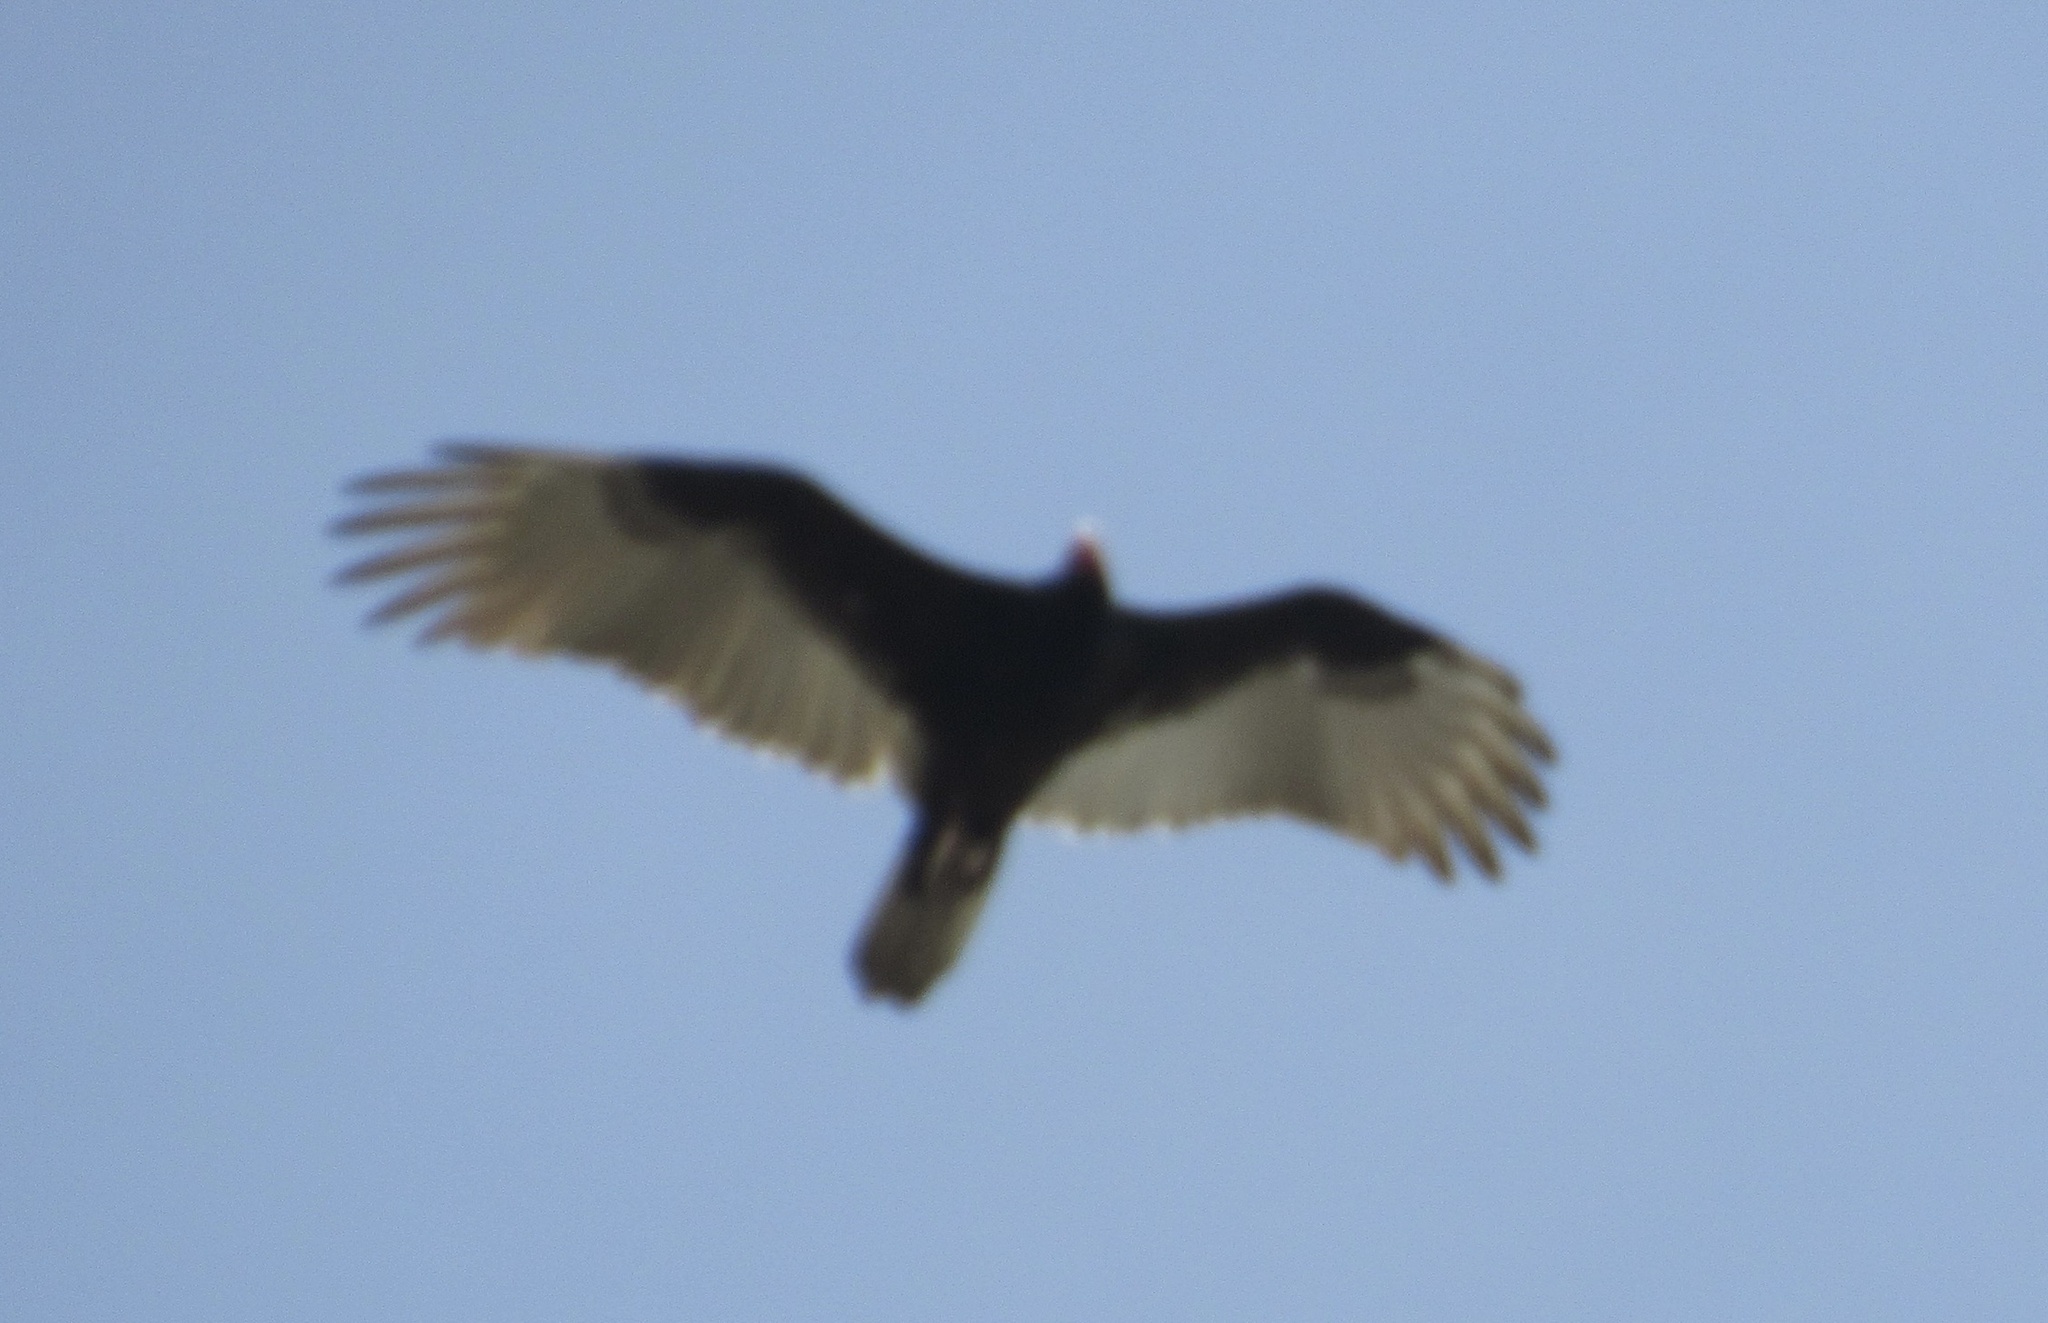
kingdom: Animalia
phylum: Chordata
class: Aves
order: Accipitriformes
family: Cathartidae
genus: Cathartes
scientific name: Cathartes aura
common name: Turkey vulture
